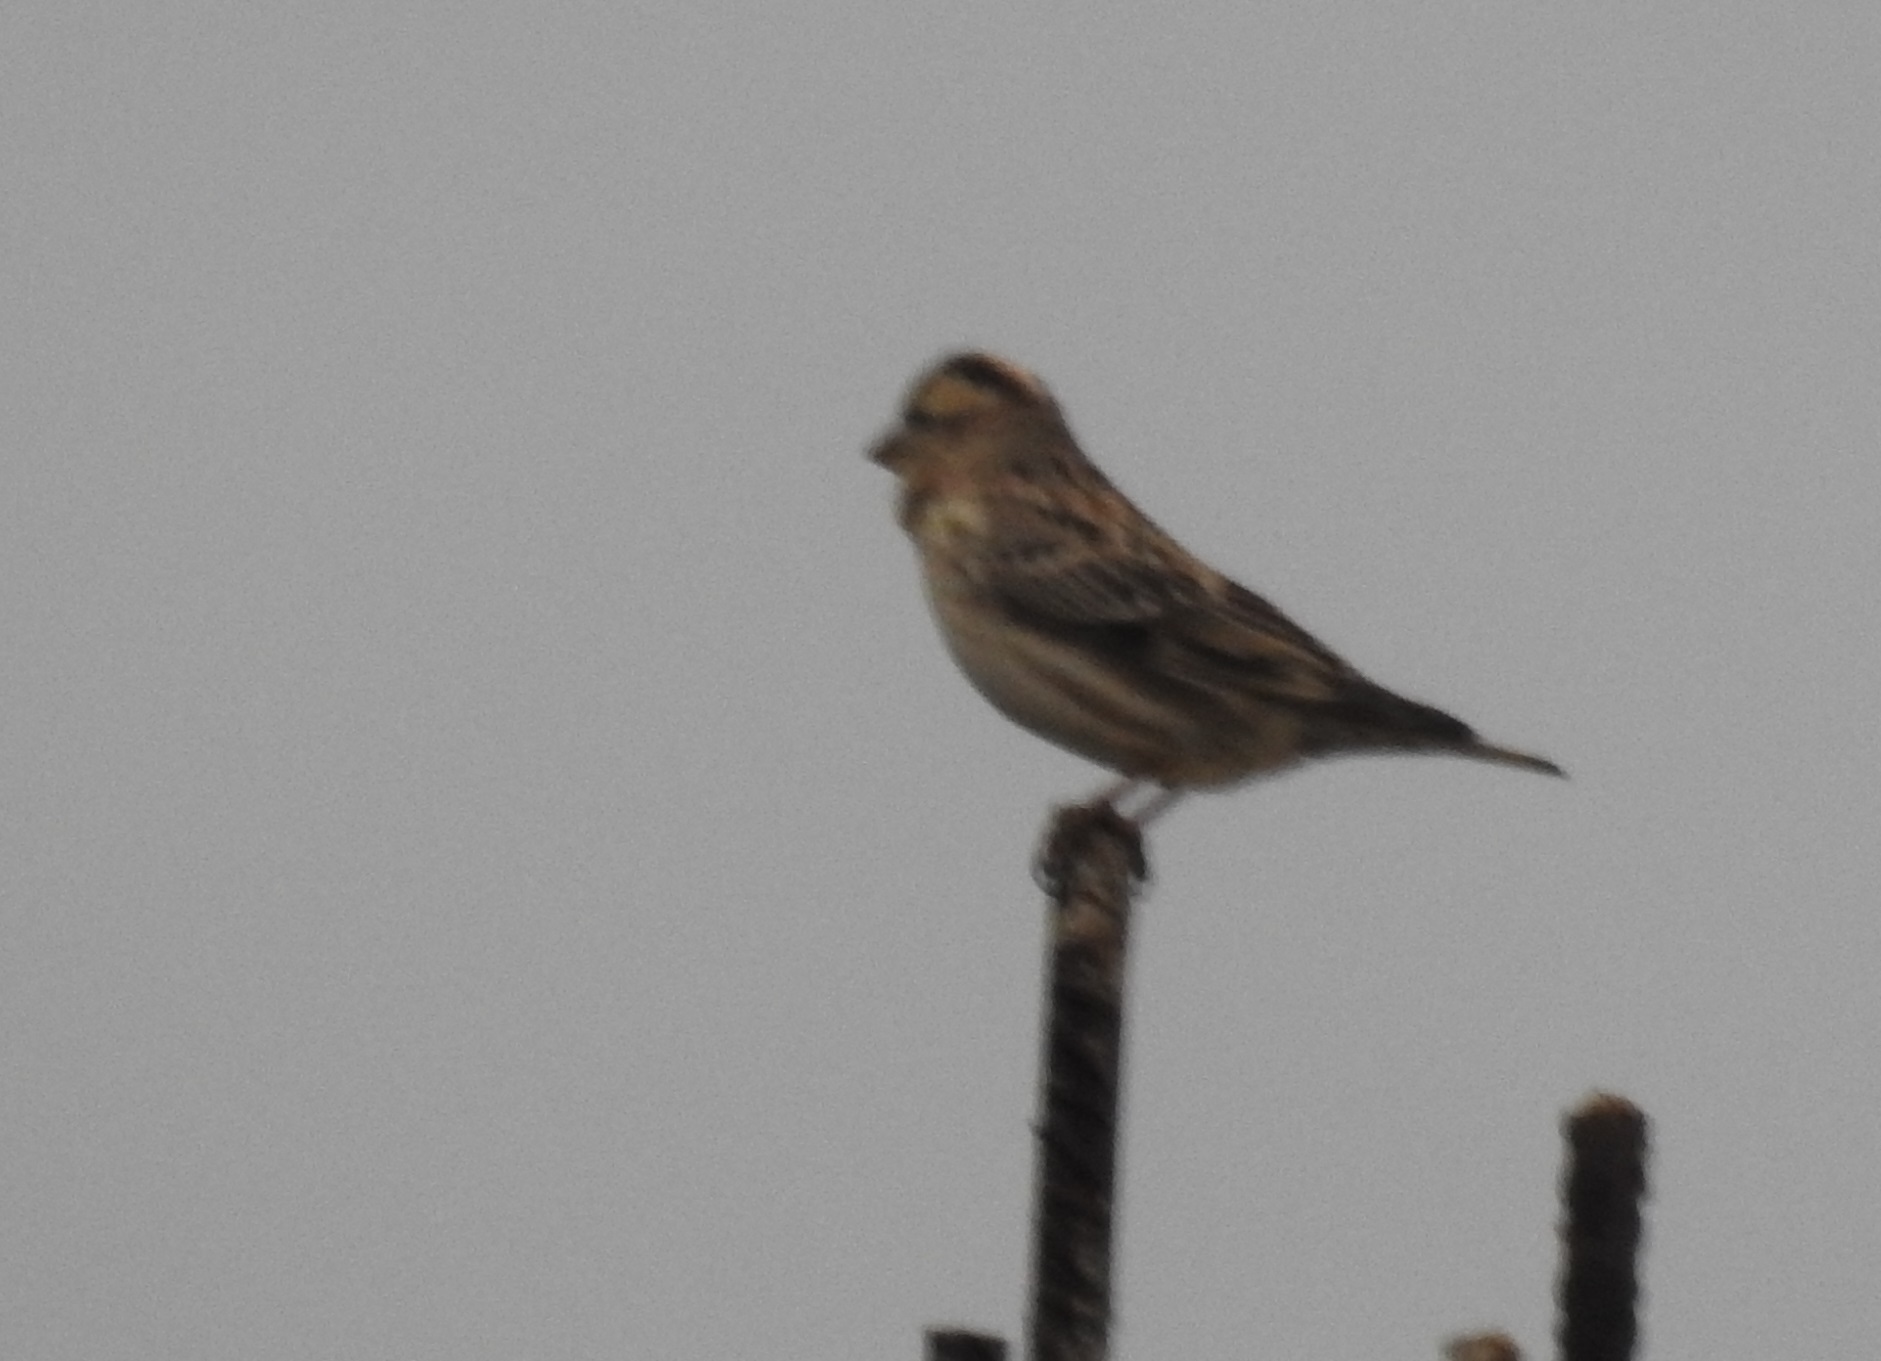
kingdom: Animalia
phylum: Chordata
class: Aves
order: Passeriformes
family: Passeridae
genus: Petronia
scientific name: Petronia petronia
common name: Rock sparrow
